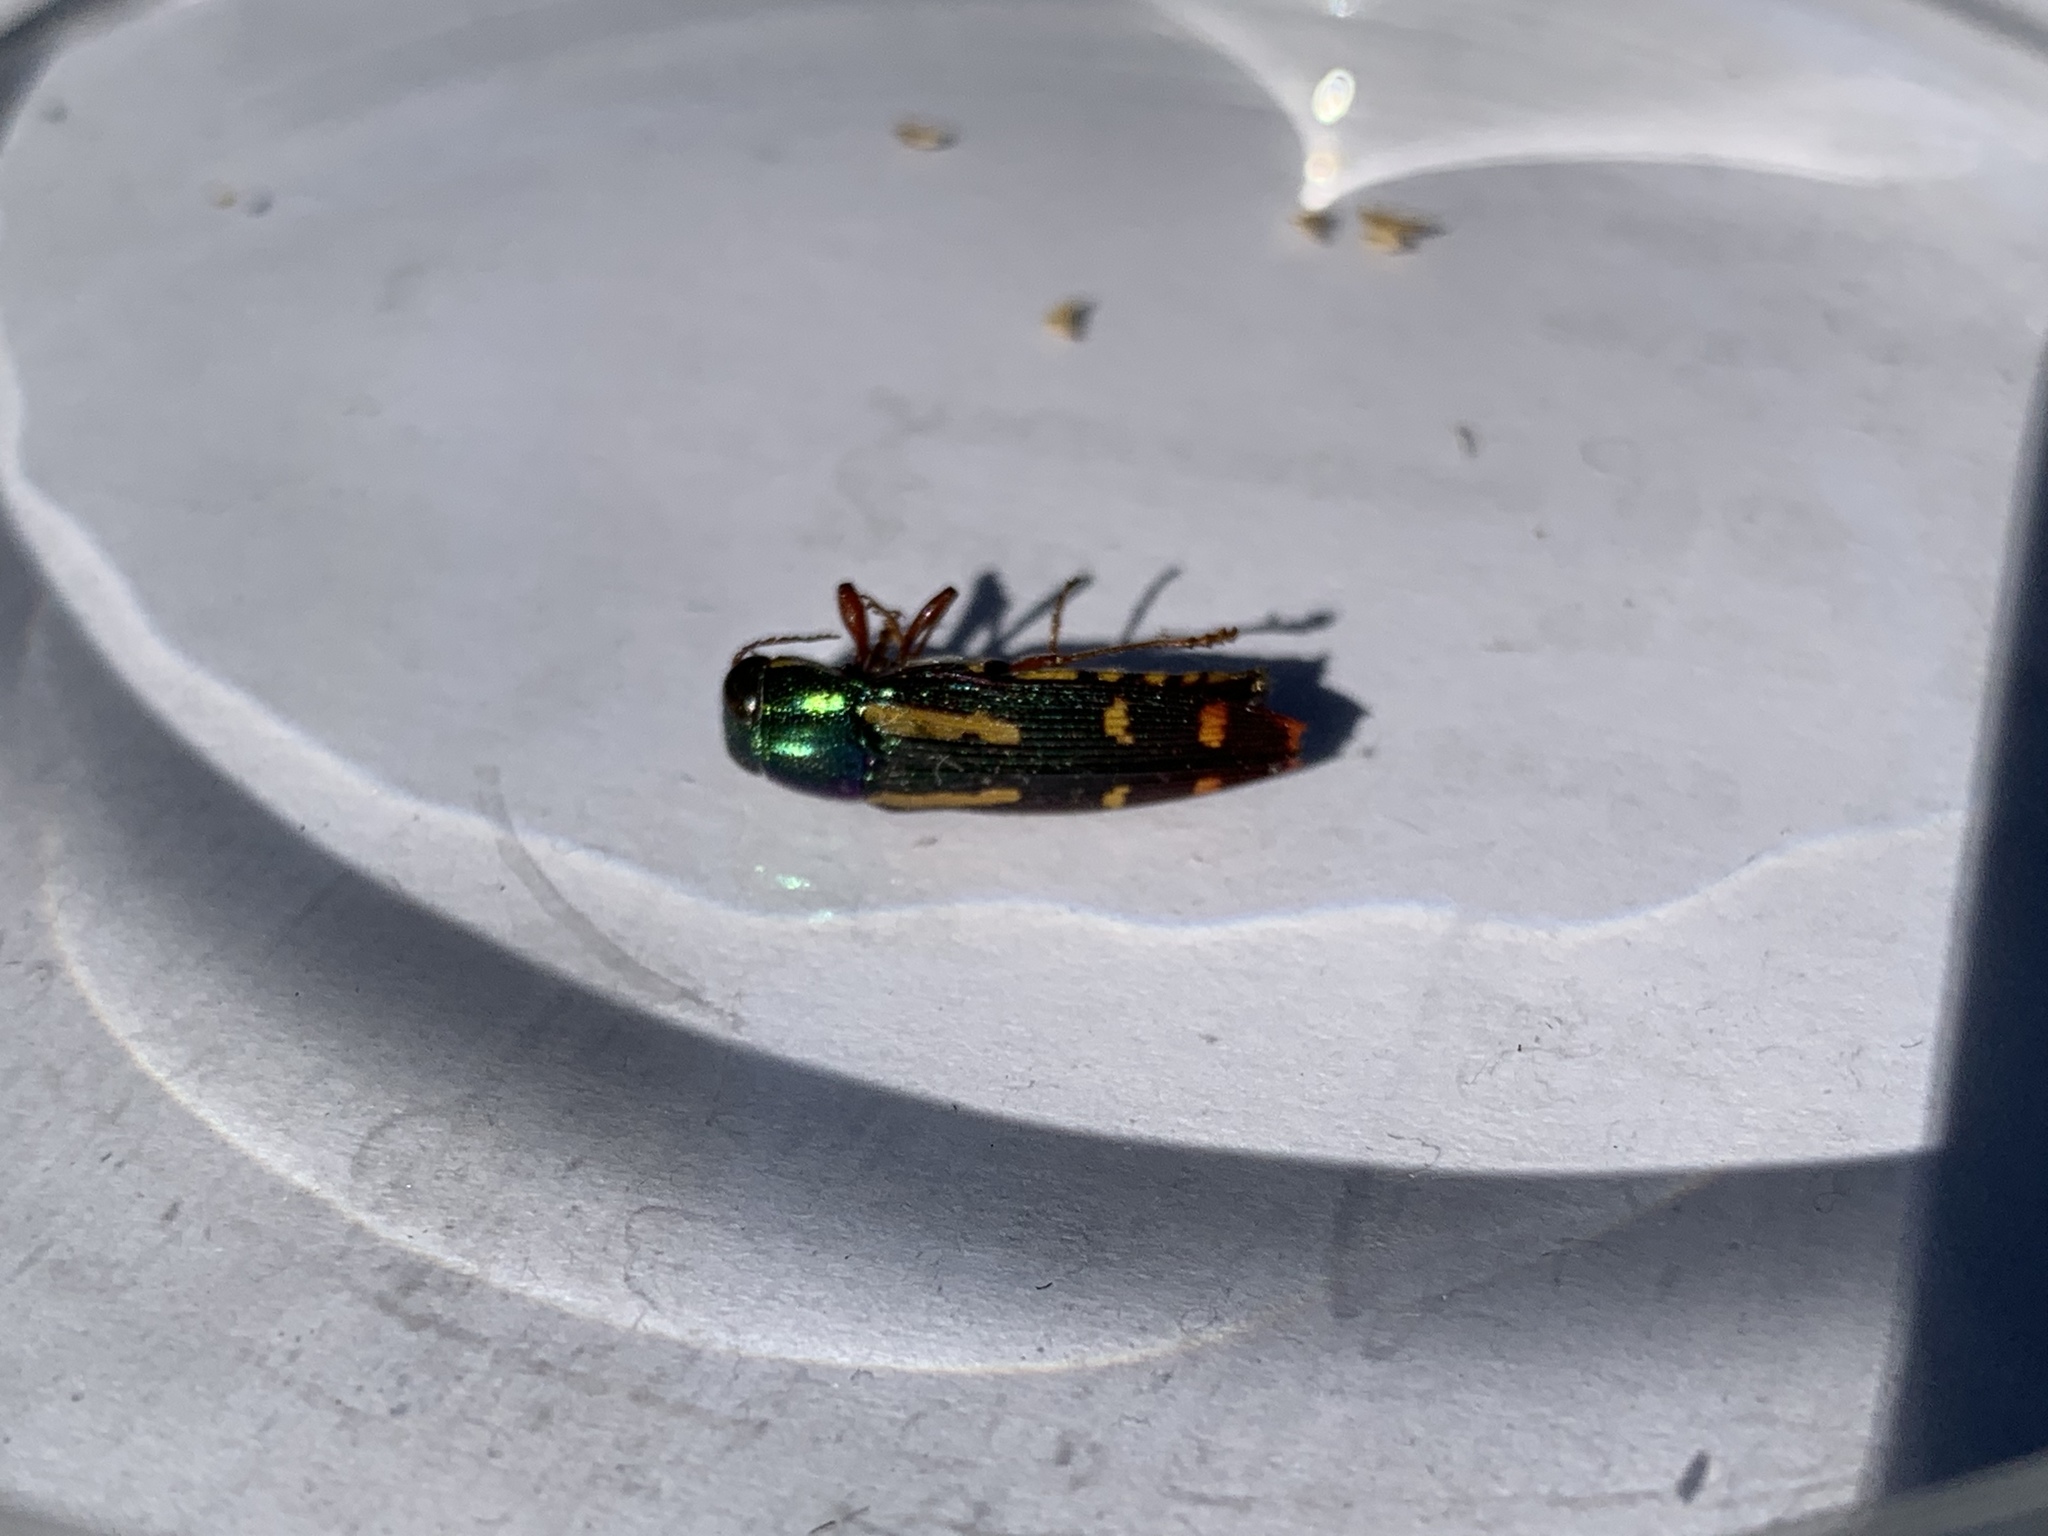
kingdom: Animalia
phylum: Arthropoda
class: Insecta
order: Coleoptera
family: Buprestidae
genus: Buprestis
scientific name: Buprestis rufipes
